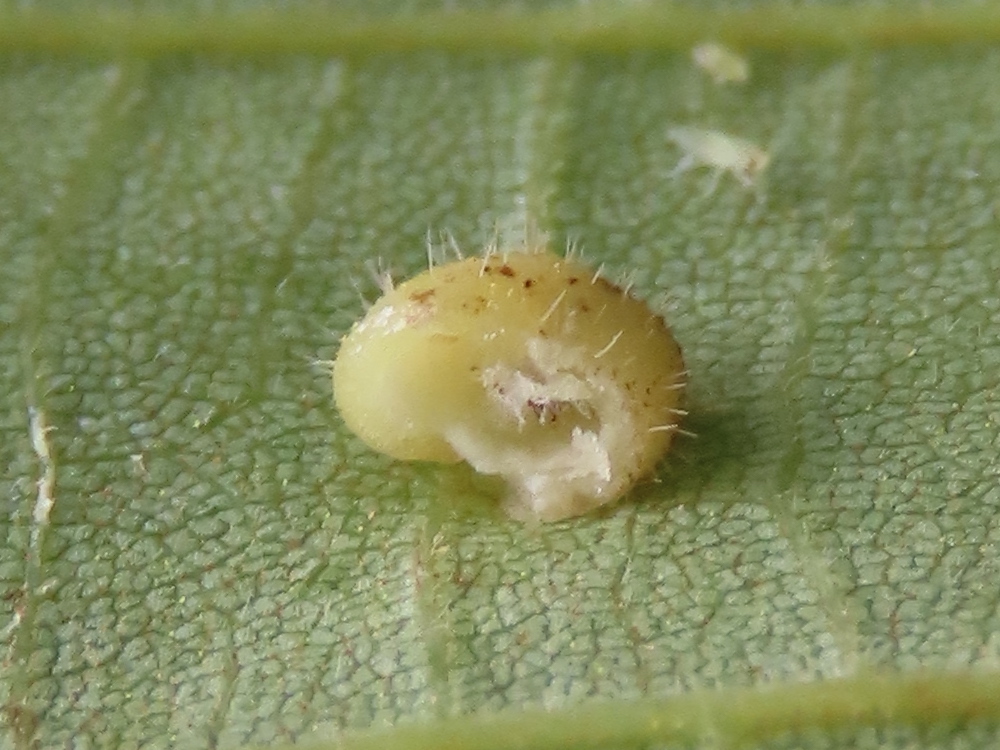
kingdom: Animalia
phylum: Arthropoda
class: Insecta
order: Diptera
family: Cecidomyiidae
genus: Caryomyia
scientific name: Caryomyia thompsoni
